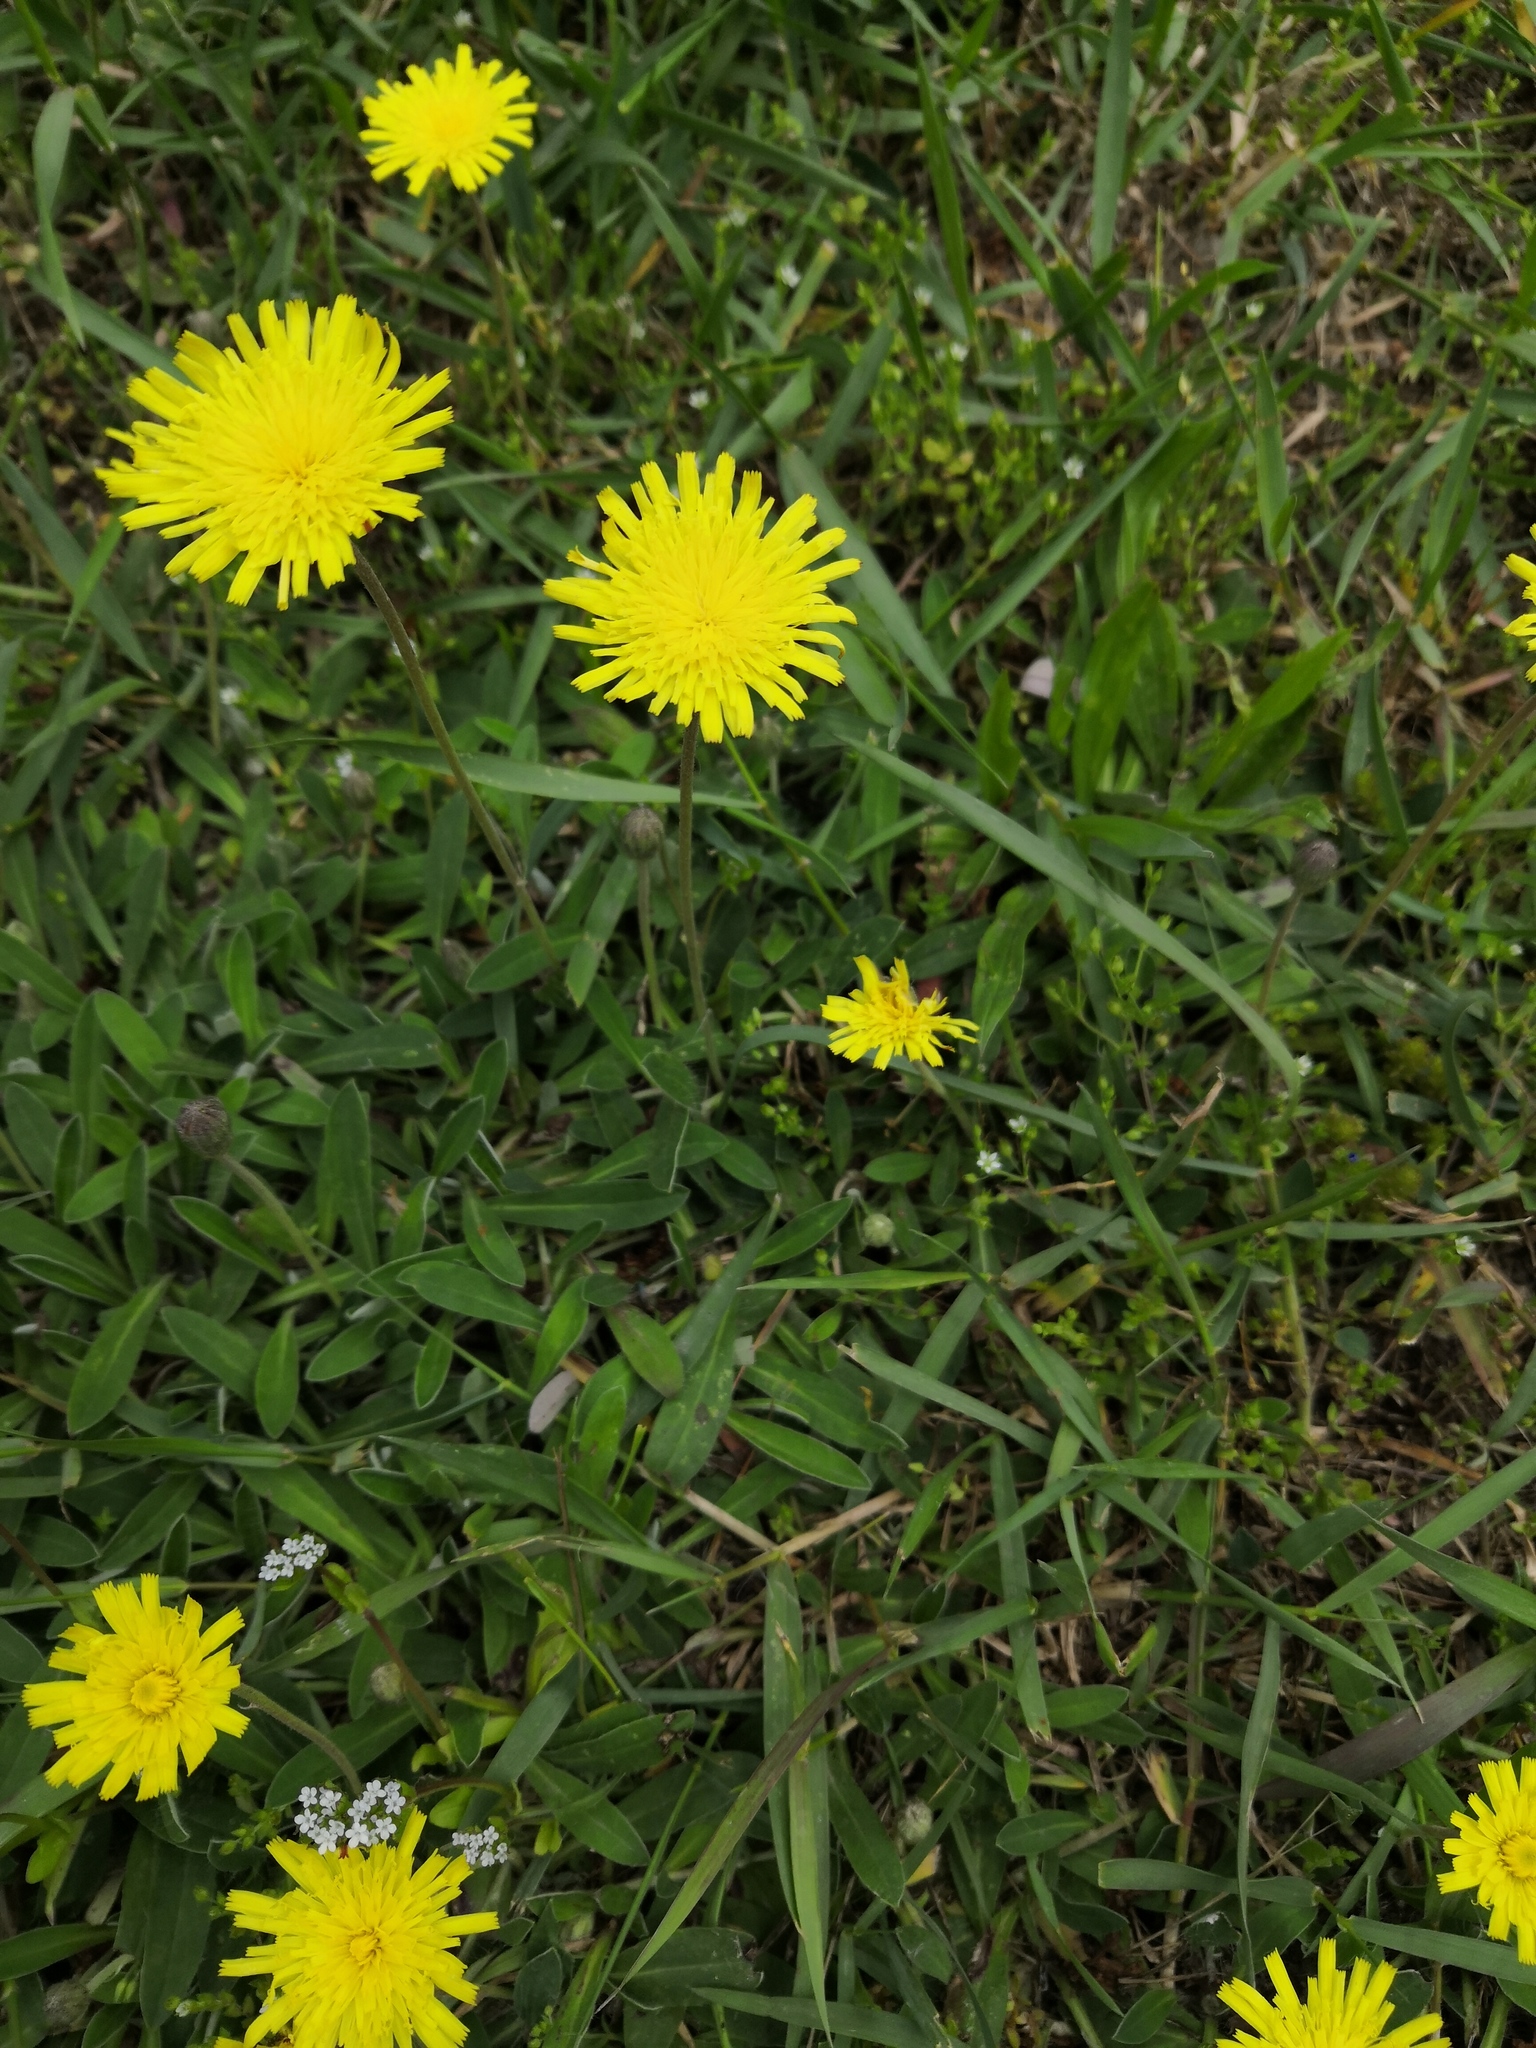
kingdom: Plantae
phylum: Tracheophyta
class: Magnoliopsida
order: Asterales
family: Asteraceae
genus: Pilosella
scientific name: Pilosella officinarum
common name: Mouse-ear hawkweed
